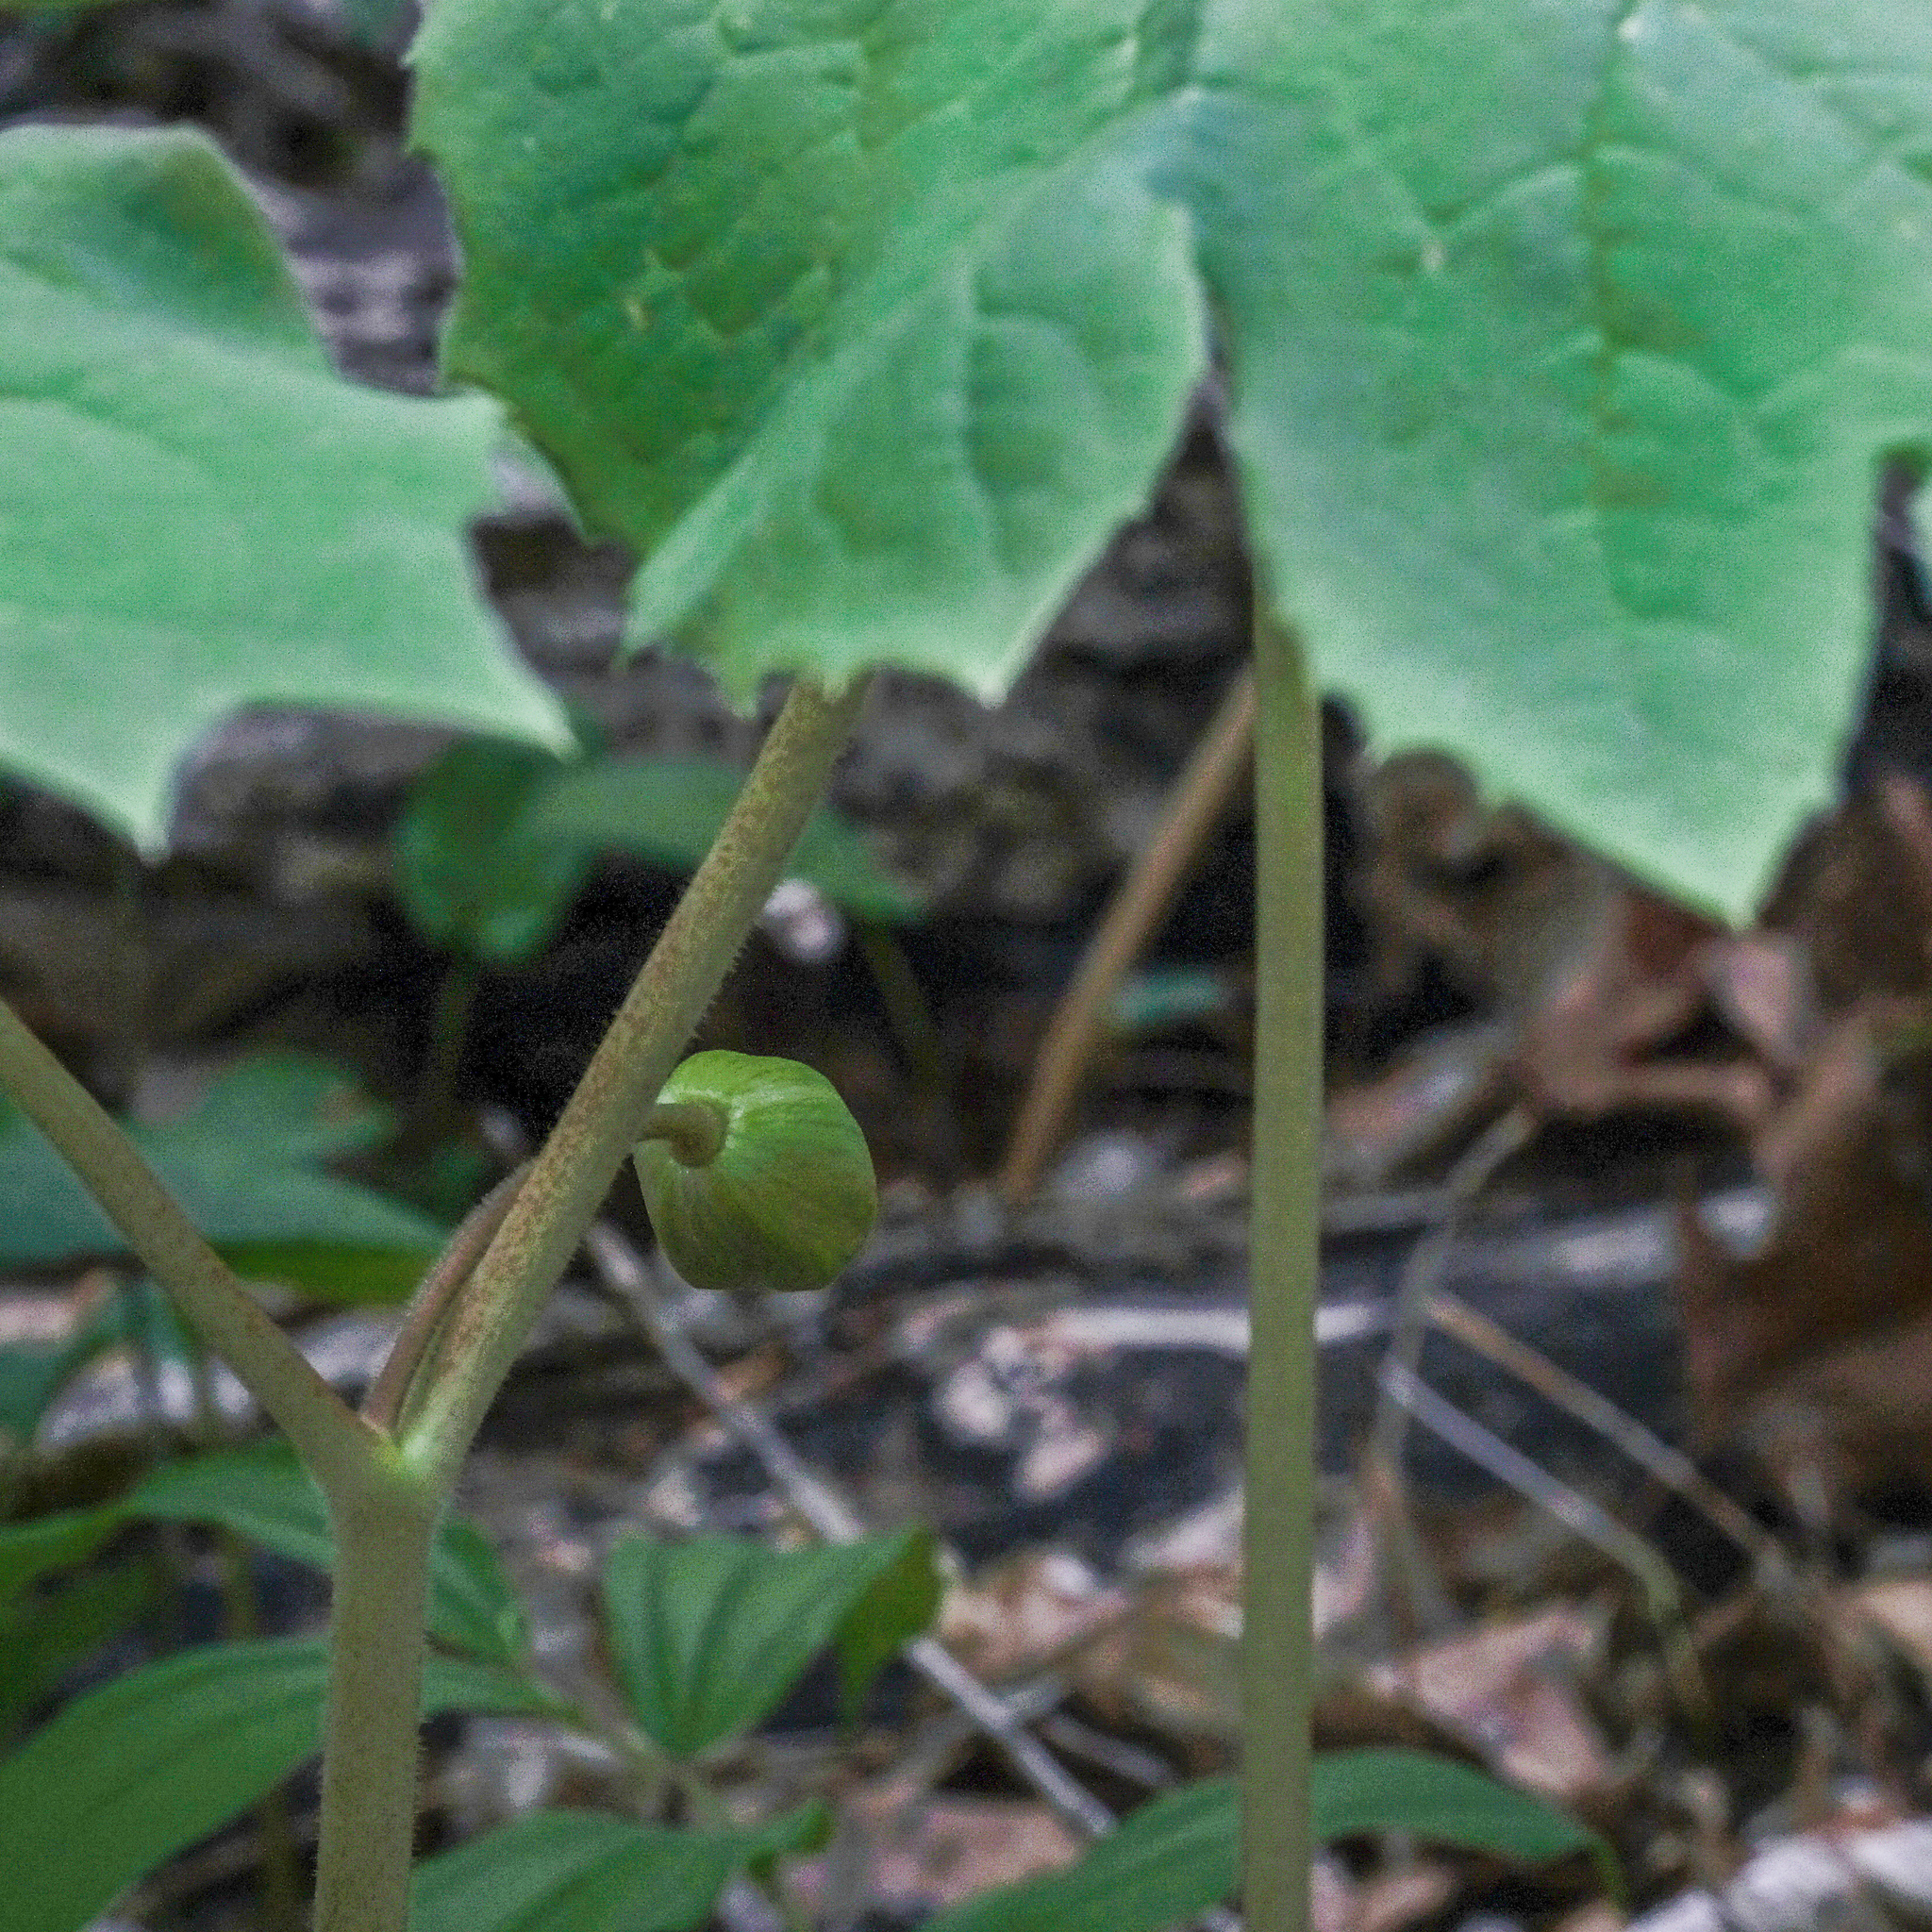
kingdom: Plantae
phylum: Tracheophyta
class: Magnoliopsida
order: Ranunculales
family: Berberidaceae
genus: Podophyllum
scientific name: Podophyllum peltatum
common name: Wild mandrake
